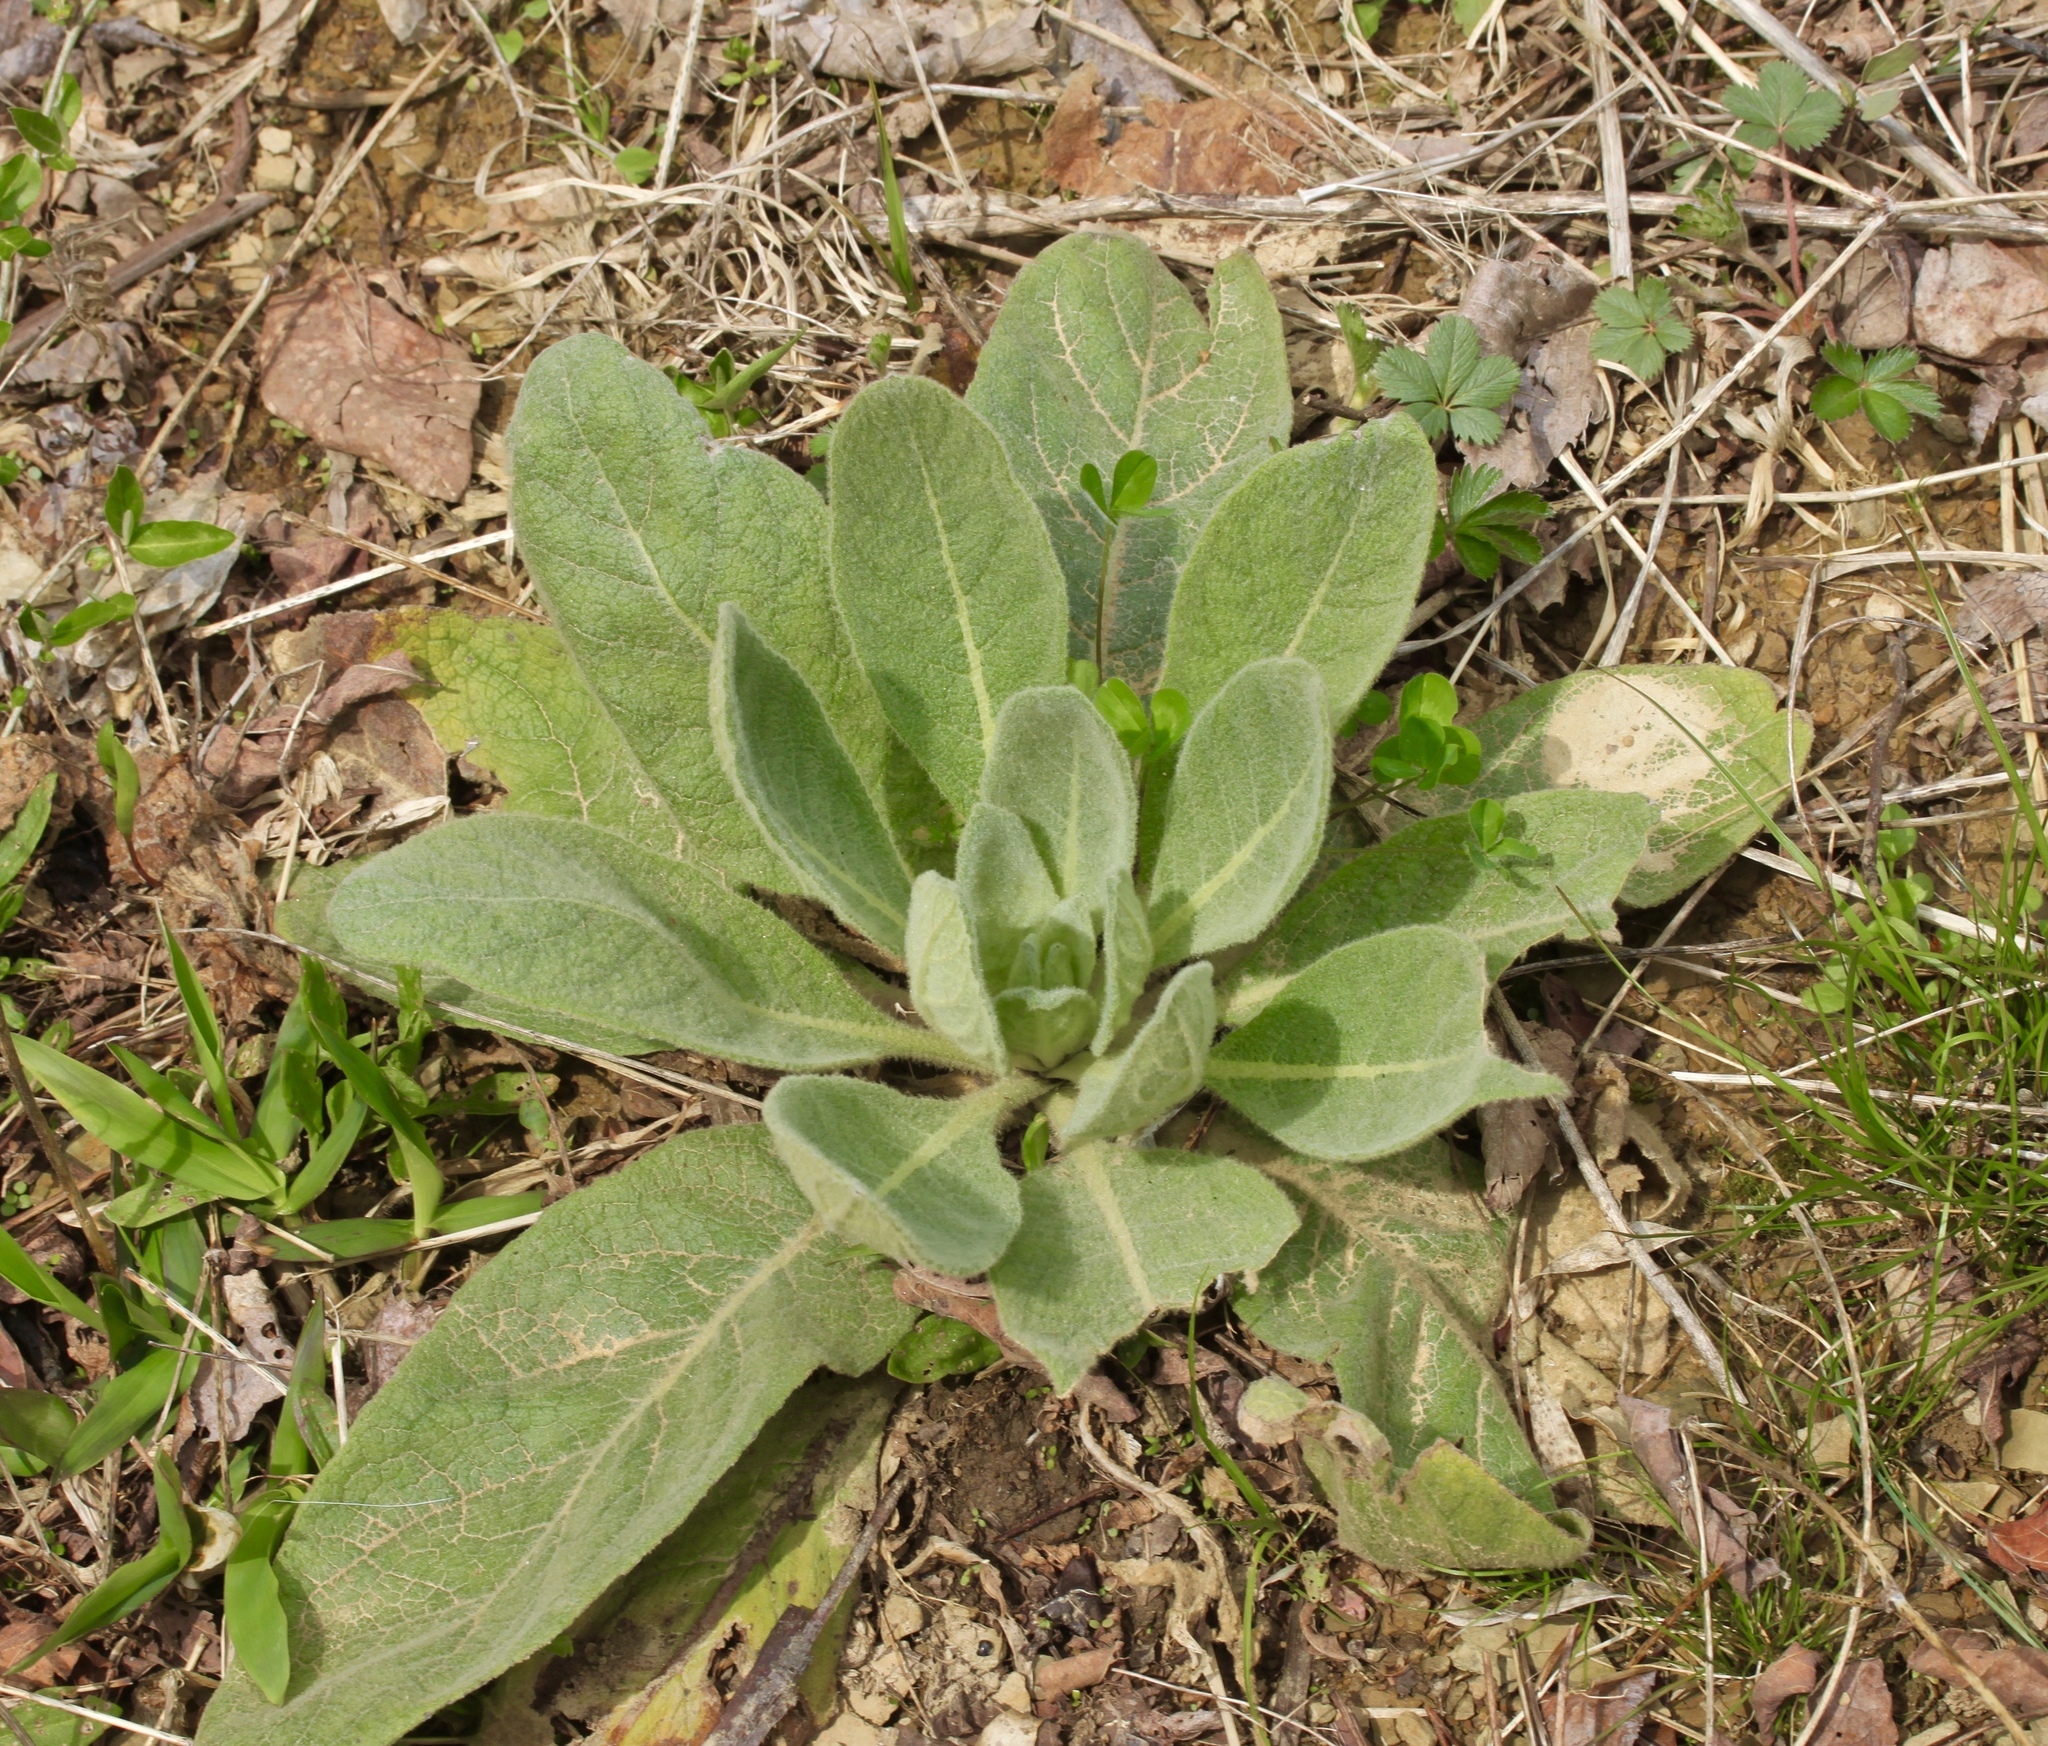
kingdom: Plantae
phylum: Tracheophyta
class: Magnoliopsida
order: Lamiales
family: Scrophulariaceae
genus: Verbascum
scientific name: Verbascum thapsus
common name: Common mullein
